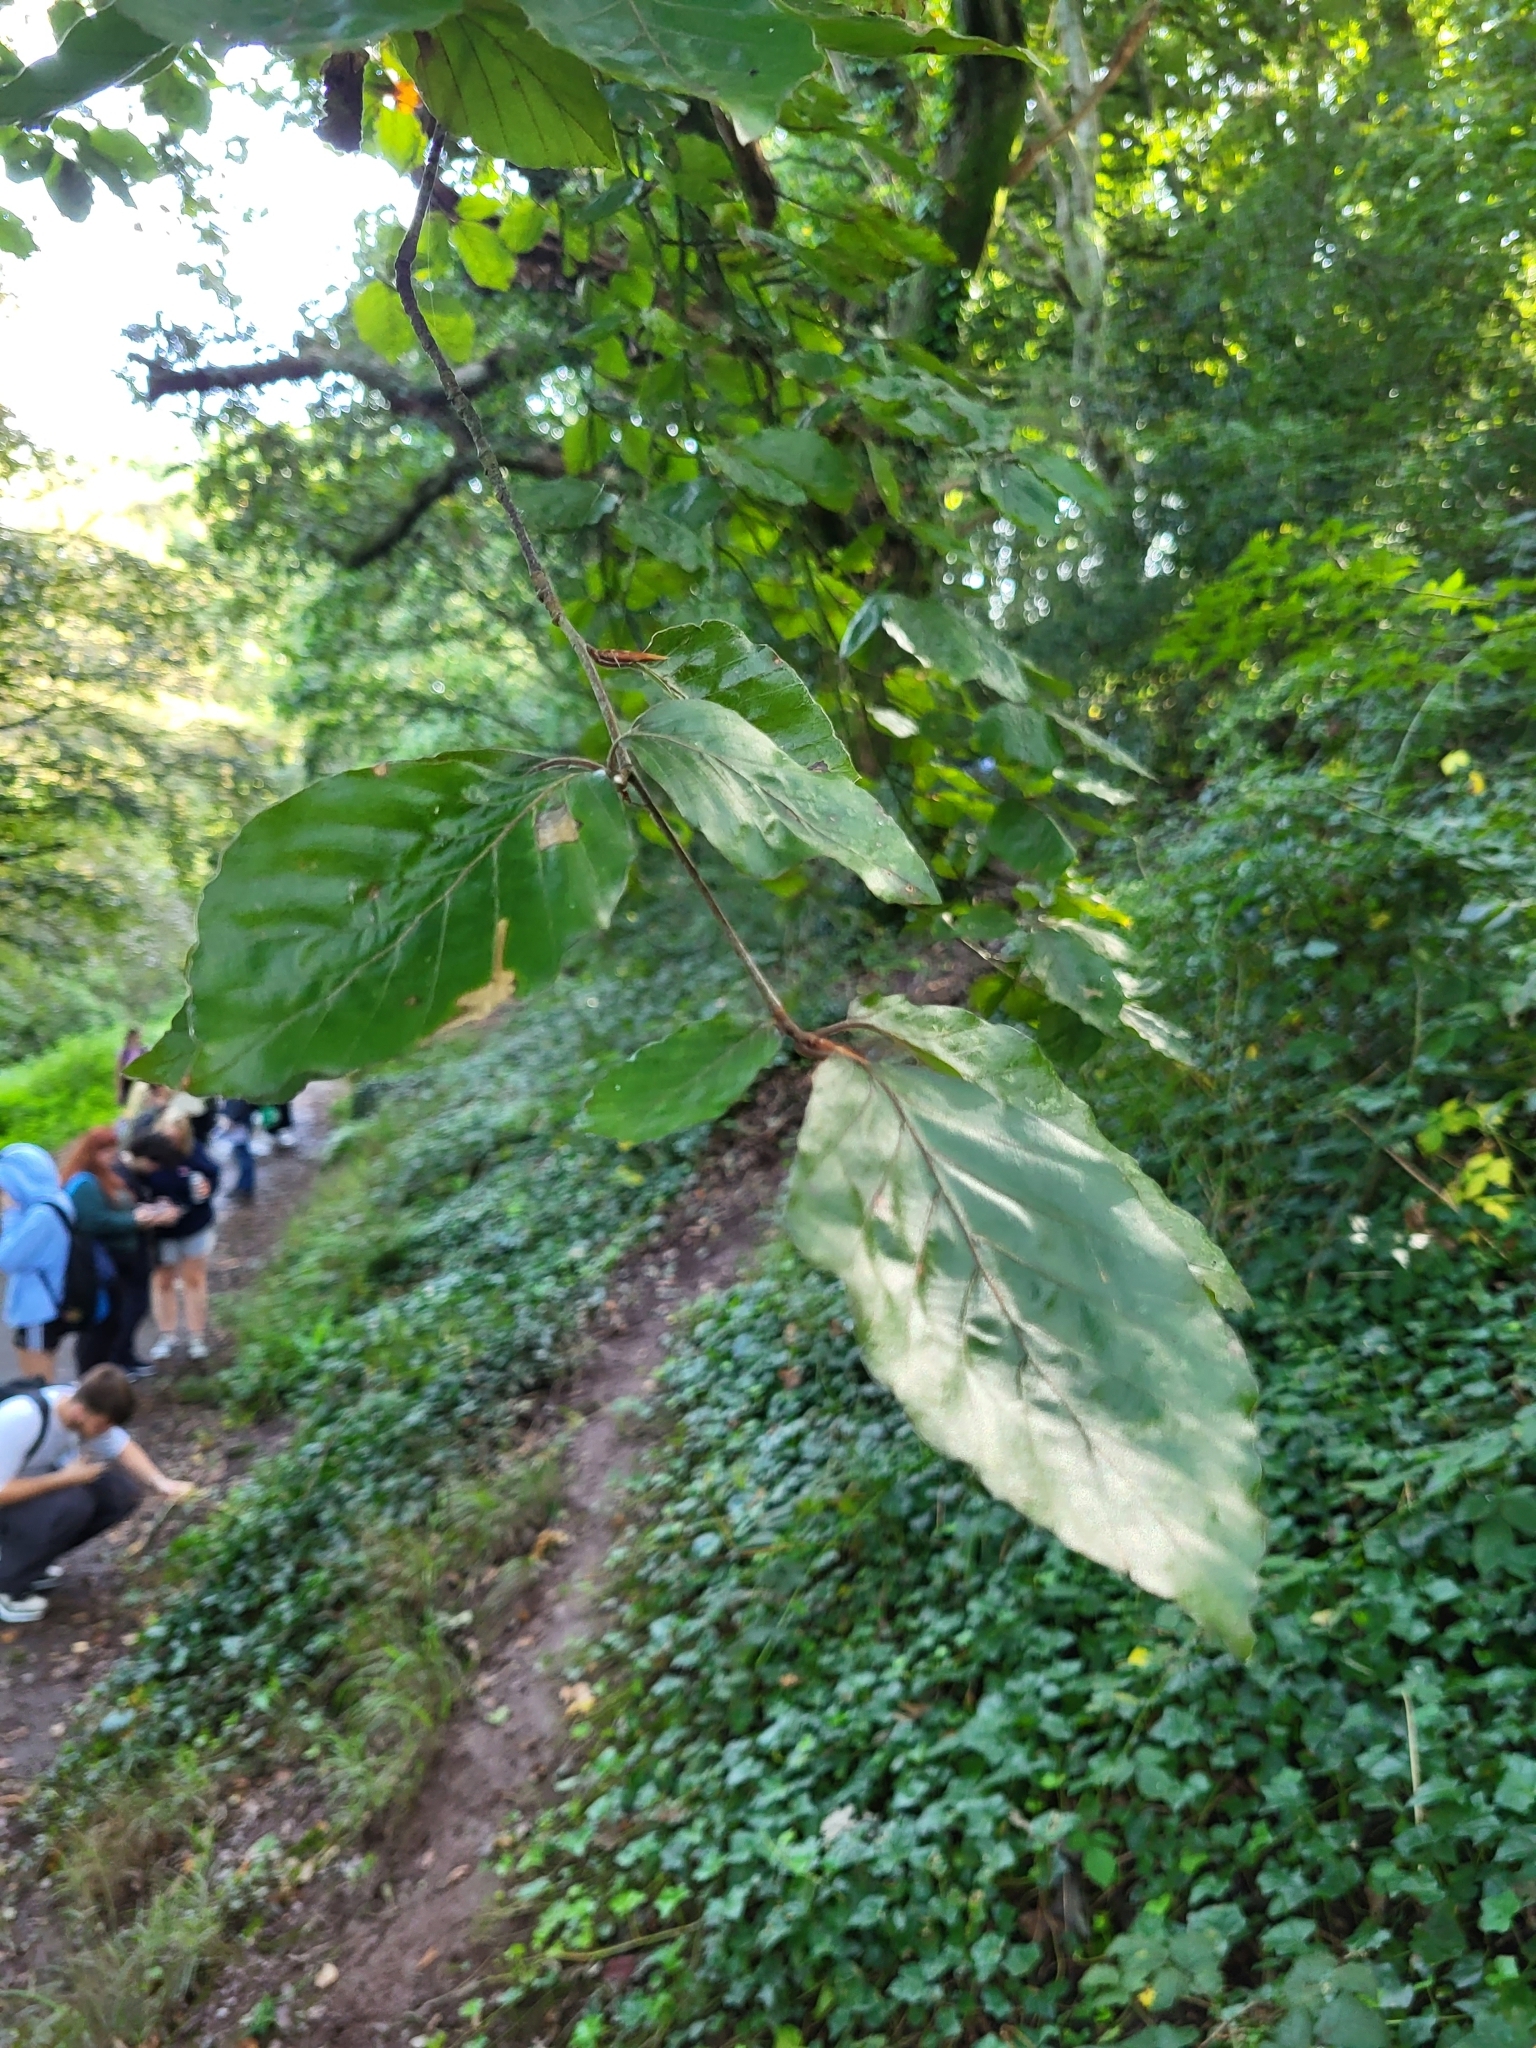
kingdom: Plantae
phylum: Tracheophyta
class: Magnoliopsida
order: Fagales
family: Fagaceae
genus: Fagus
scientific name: Fagus sylvatica
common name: Beech
